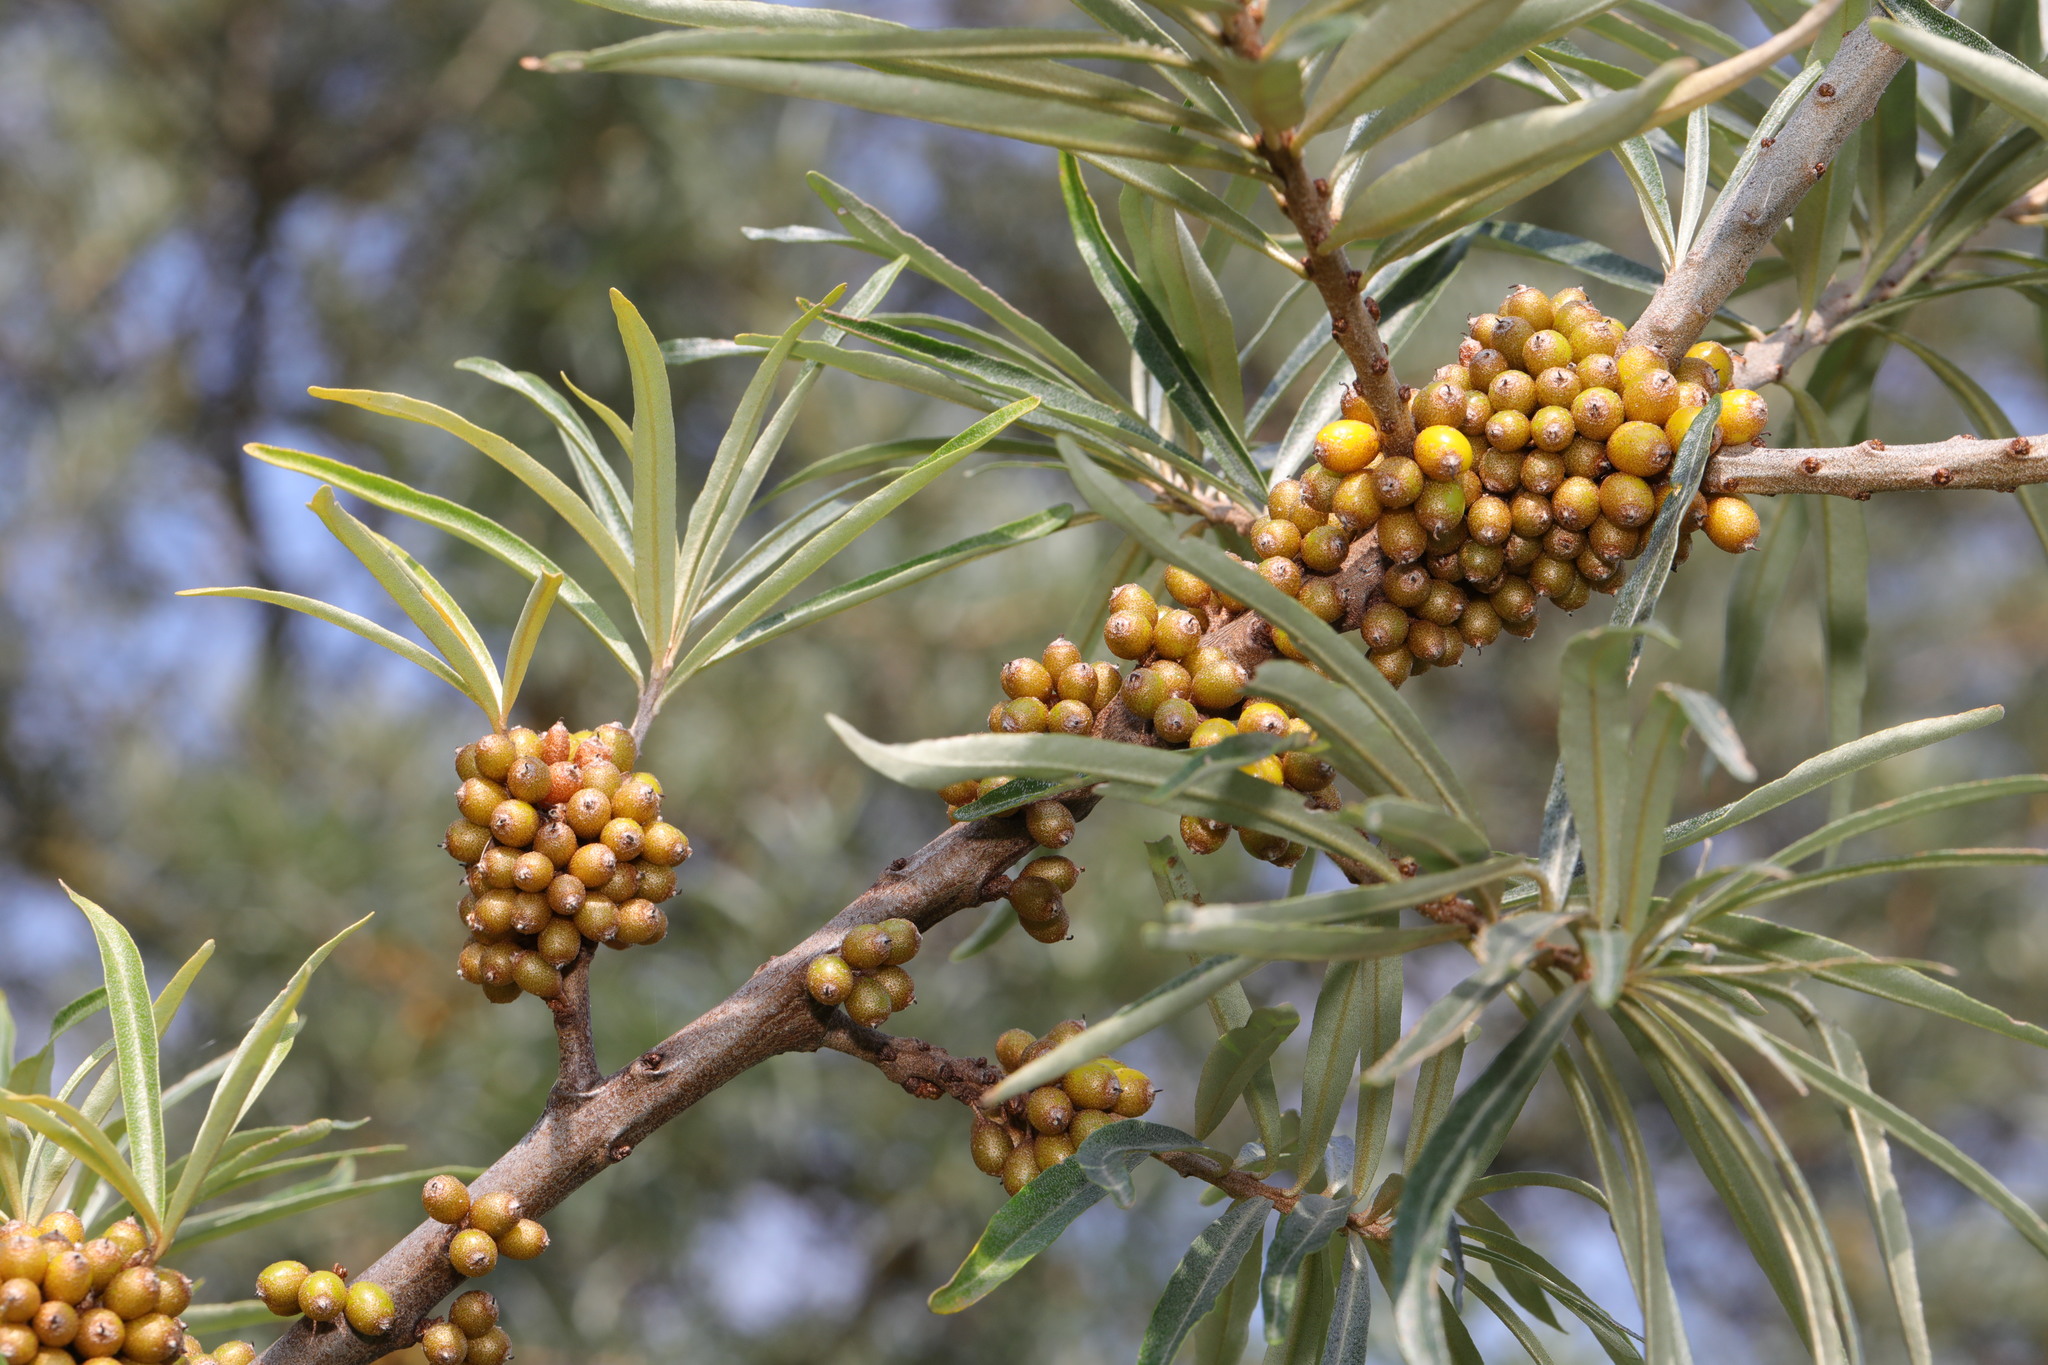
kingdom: Plantae
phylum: Tracheophyta
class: Magnoliopsida
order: Rosales
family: Elaeagnaceae
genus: Hippophae
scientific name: Hippophae rhamnoides
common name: Sea-buckthorn
